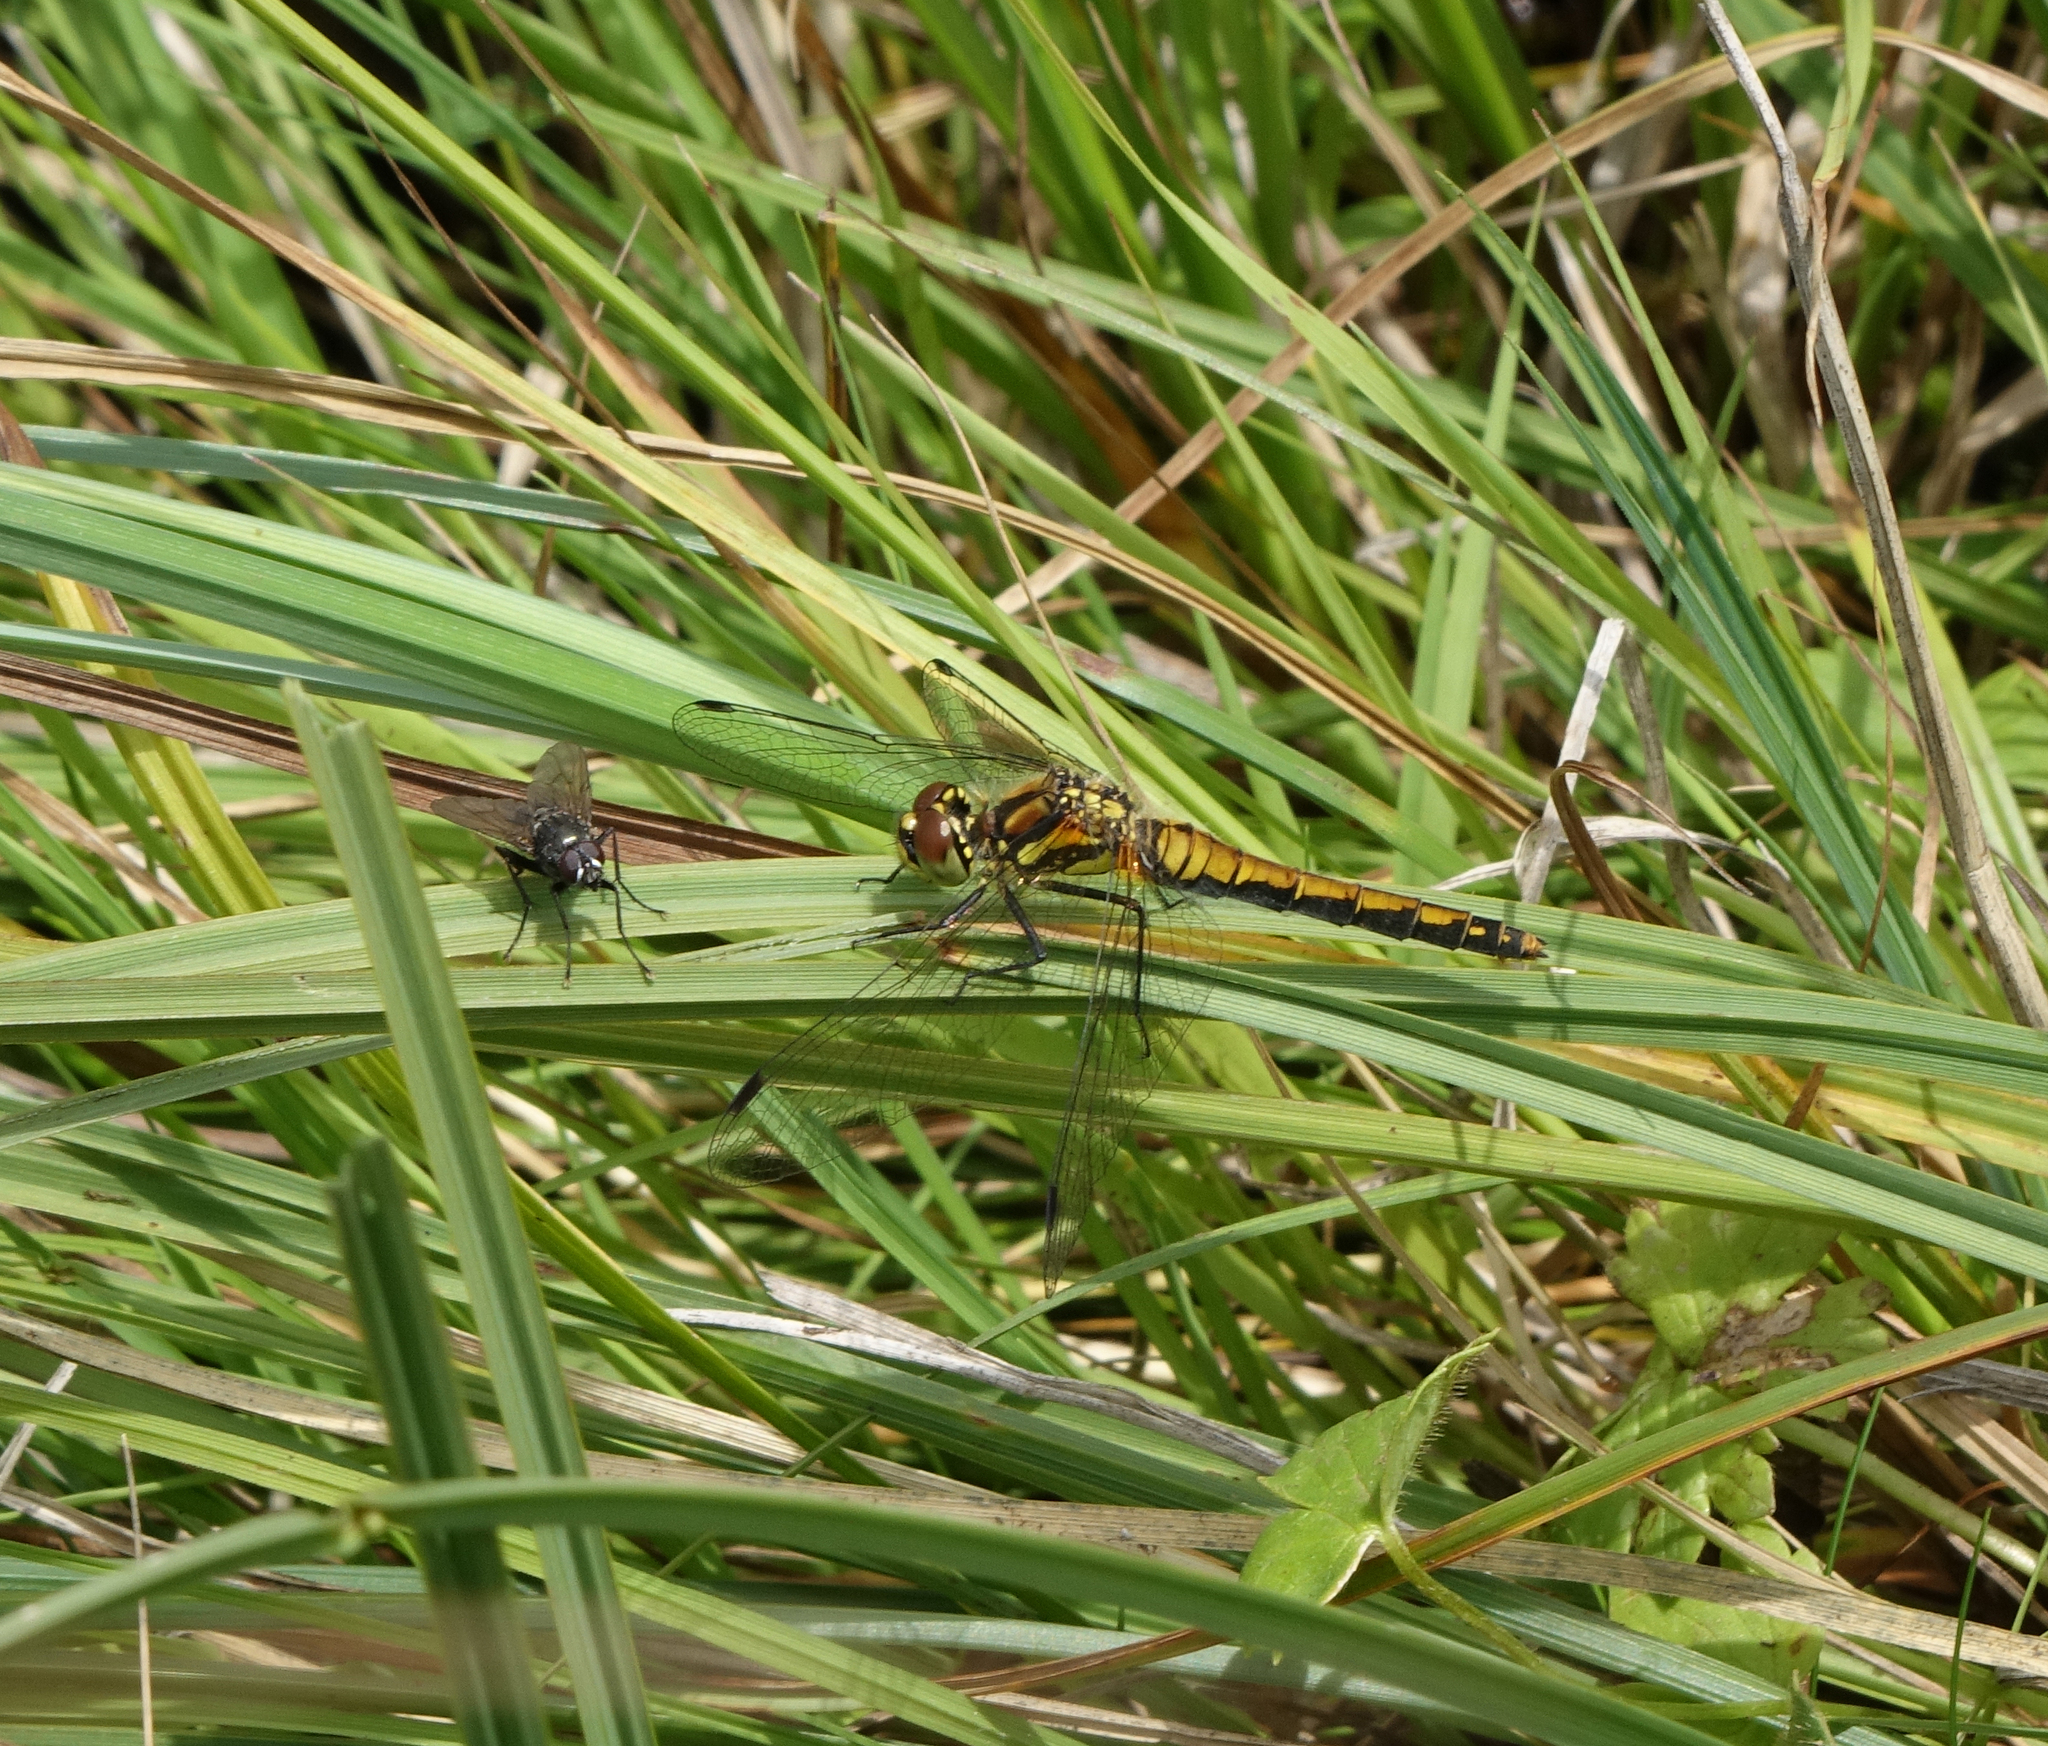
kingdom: Animalia
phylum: Arthropoda
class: Insecta
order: Odonata
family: Libellulidae
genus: Sympetrum
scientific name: Sympetrum danae
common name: Black darter
